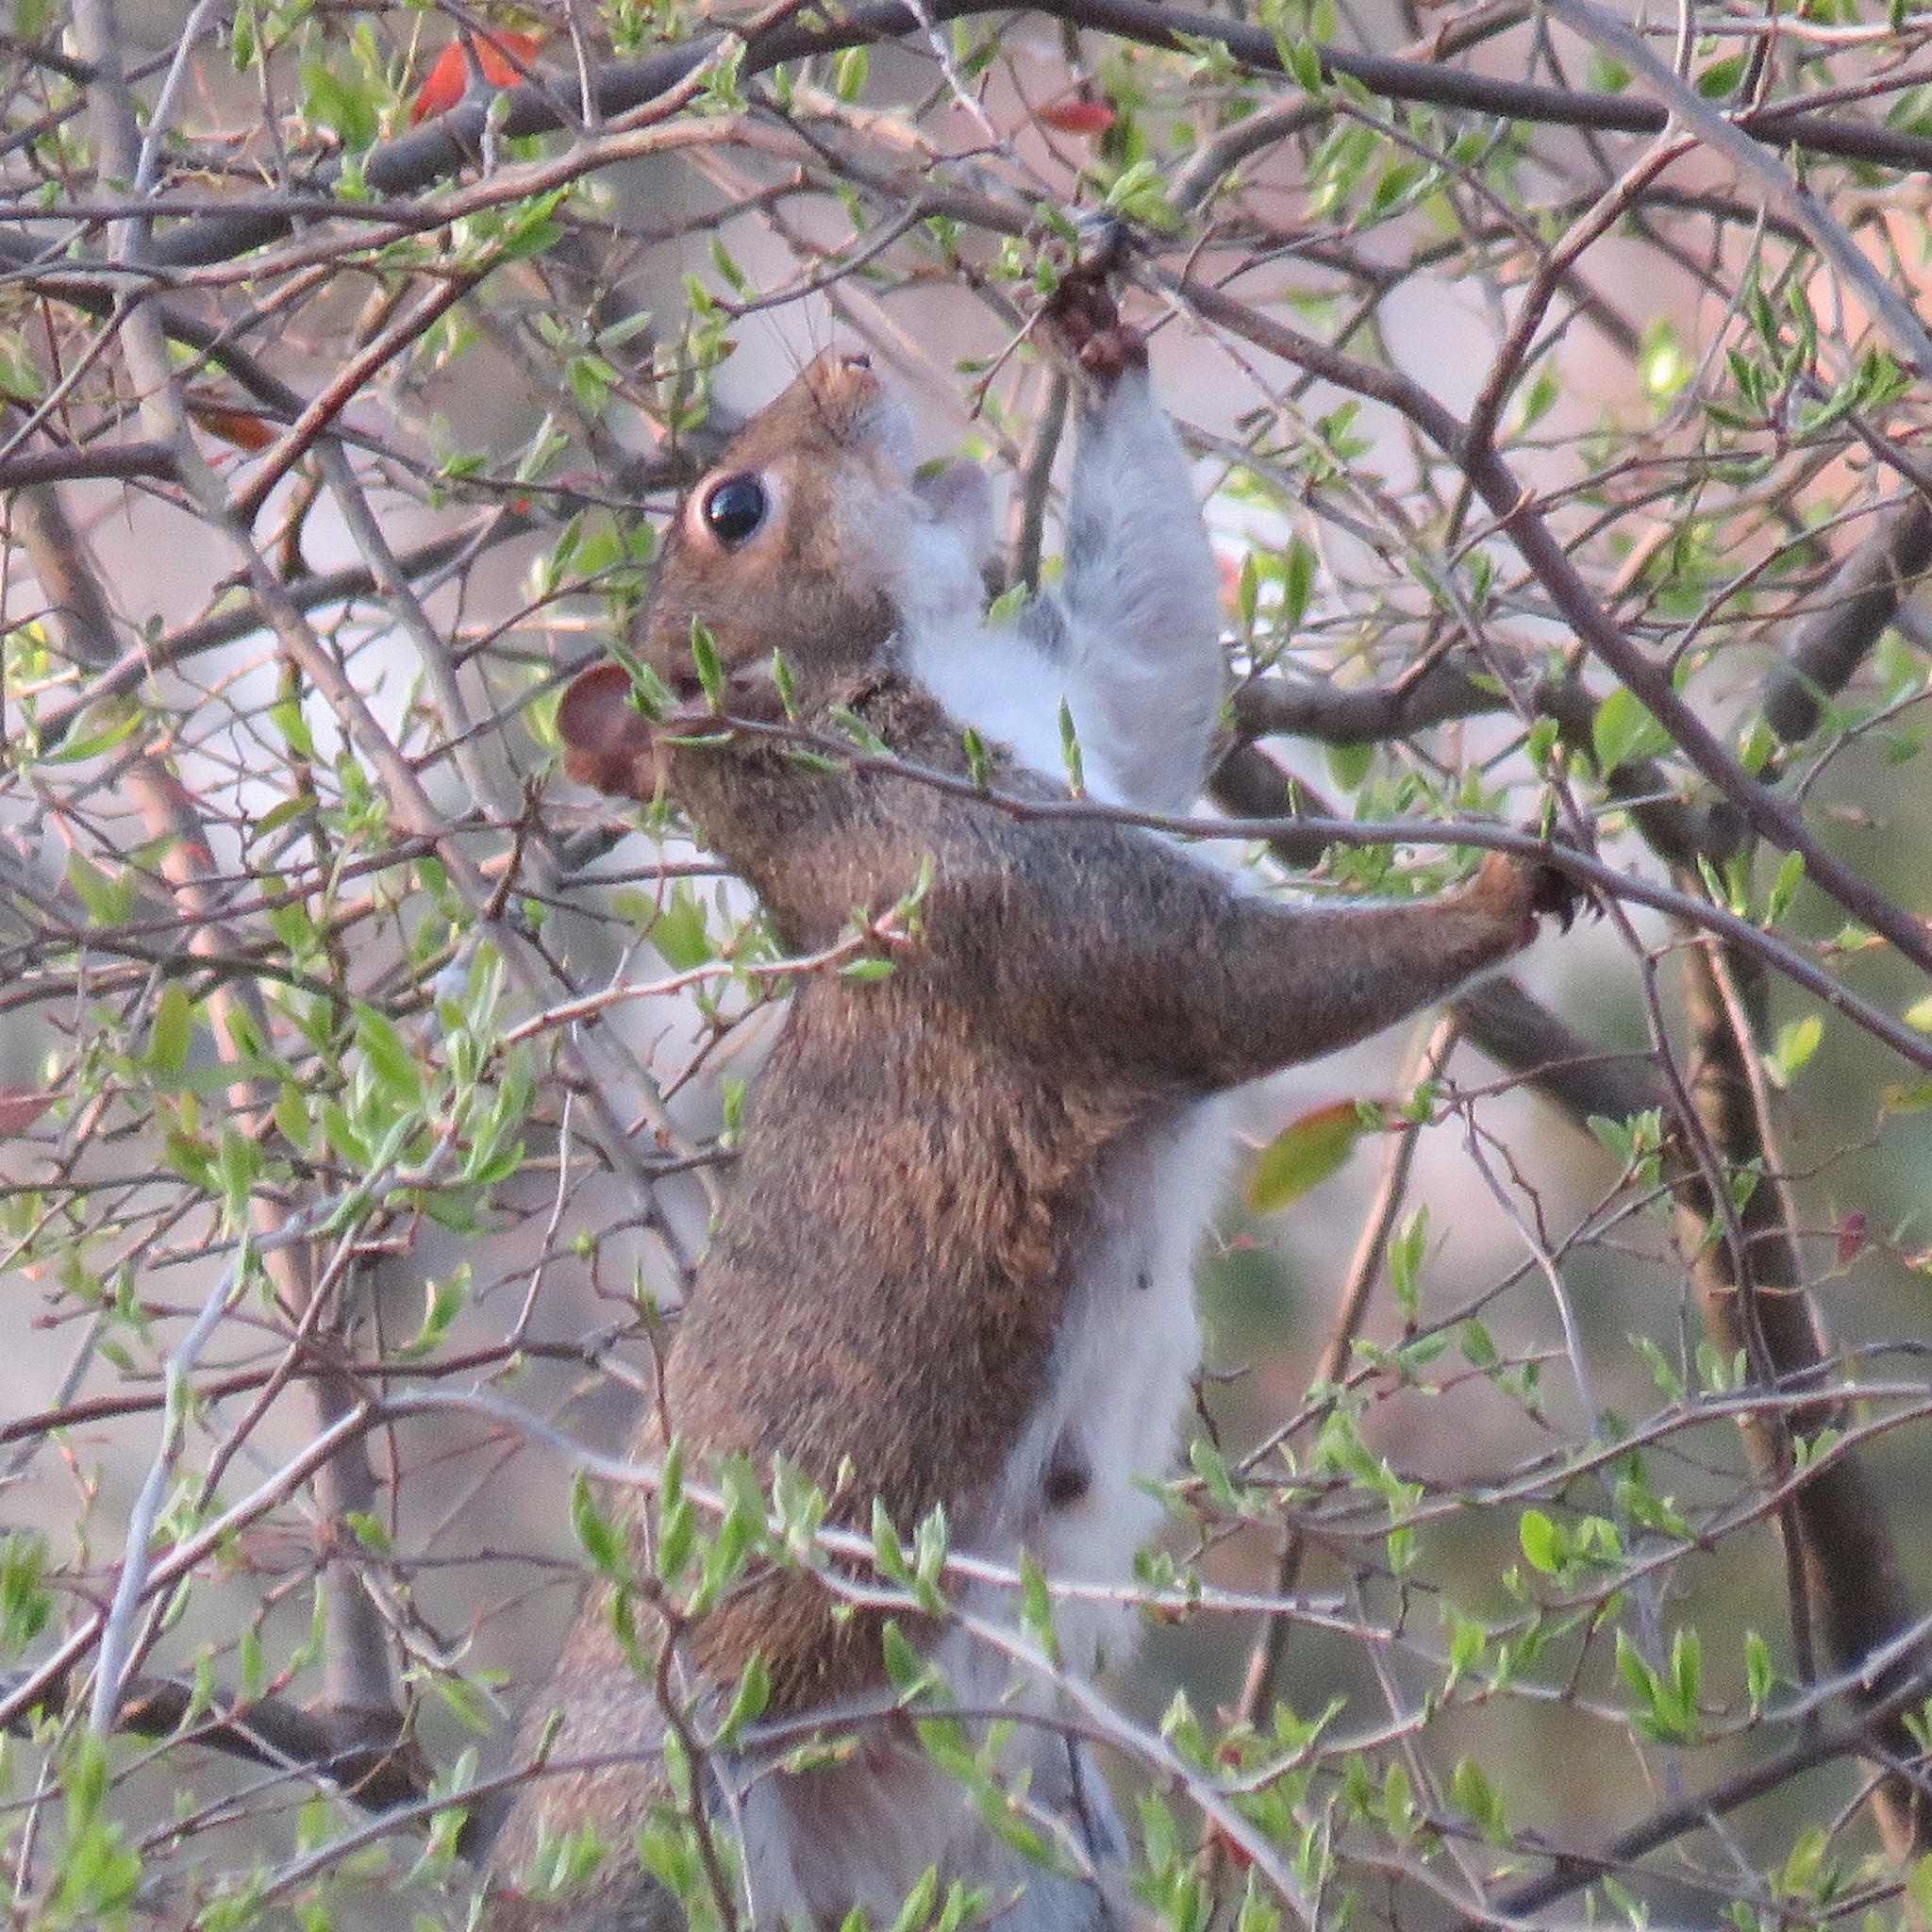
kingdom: Animalia
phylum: Chordata
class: Mammalia
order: Rodentia
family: Sciuridae
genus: Sciurus
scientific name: Sciurus carolinensis
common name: Eastern gray squirrel
